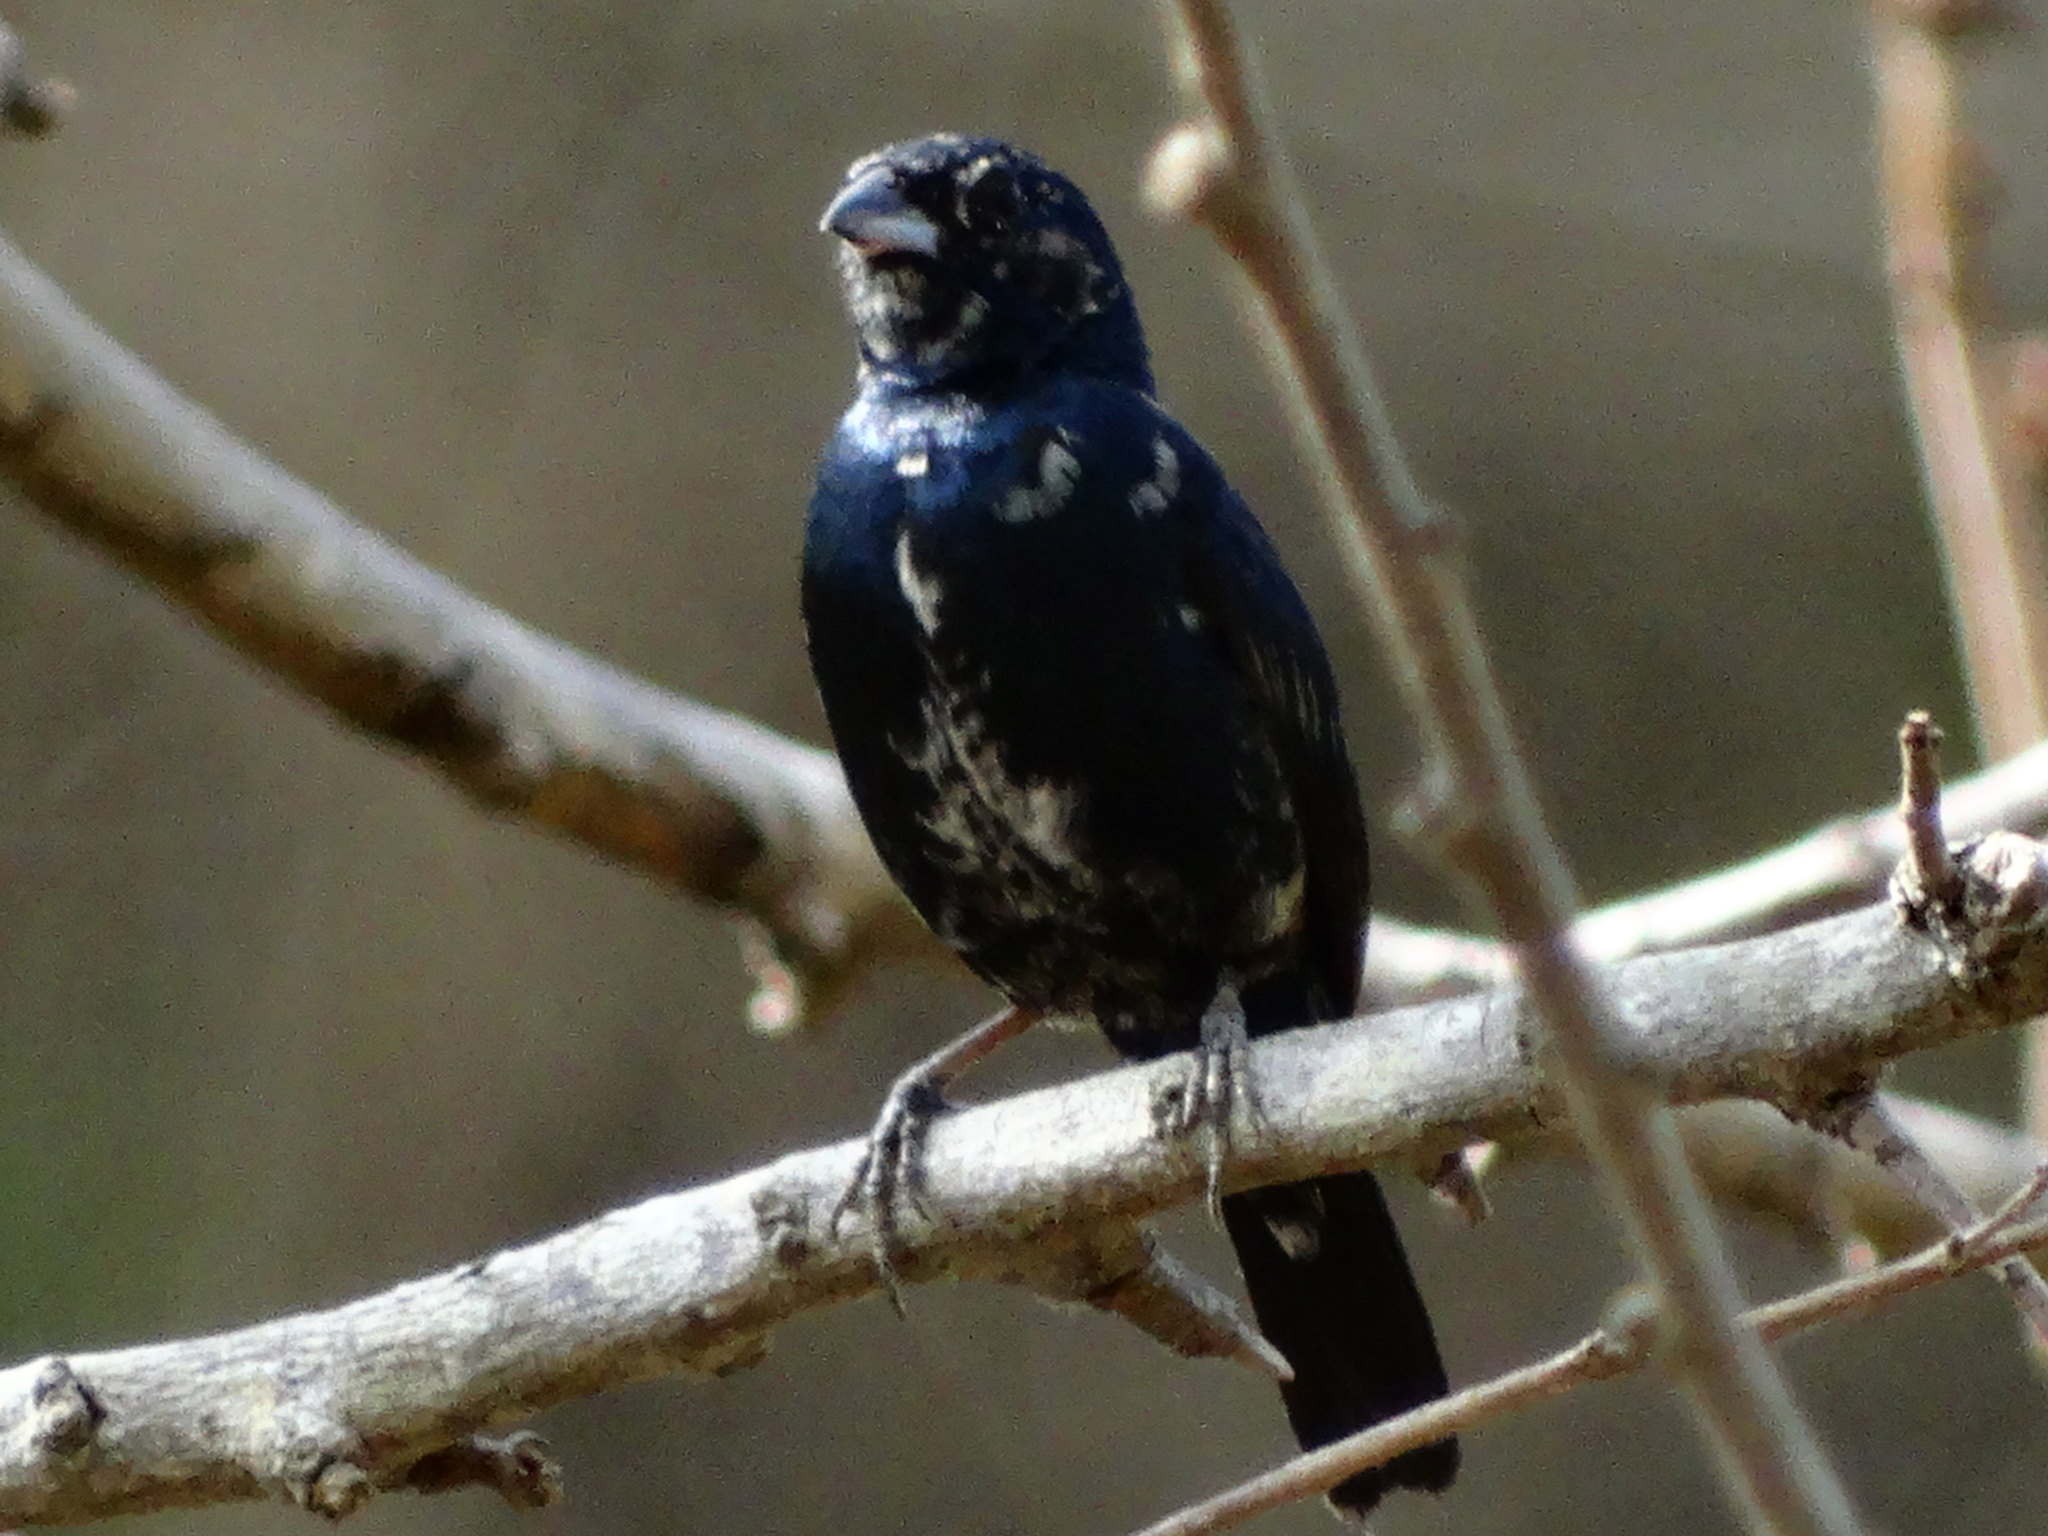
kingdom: Animalia
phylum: Chordata
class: Aves
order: Passeriformes
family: Thraupidae
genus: Volatinia
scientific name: Volatinia jacarina
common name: Blue-black grassquit
